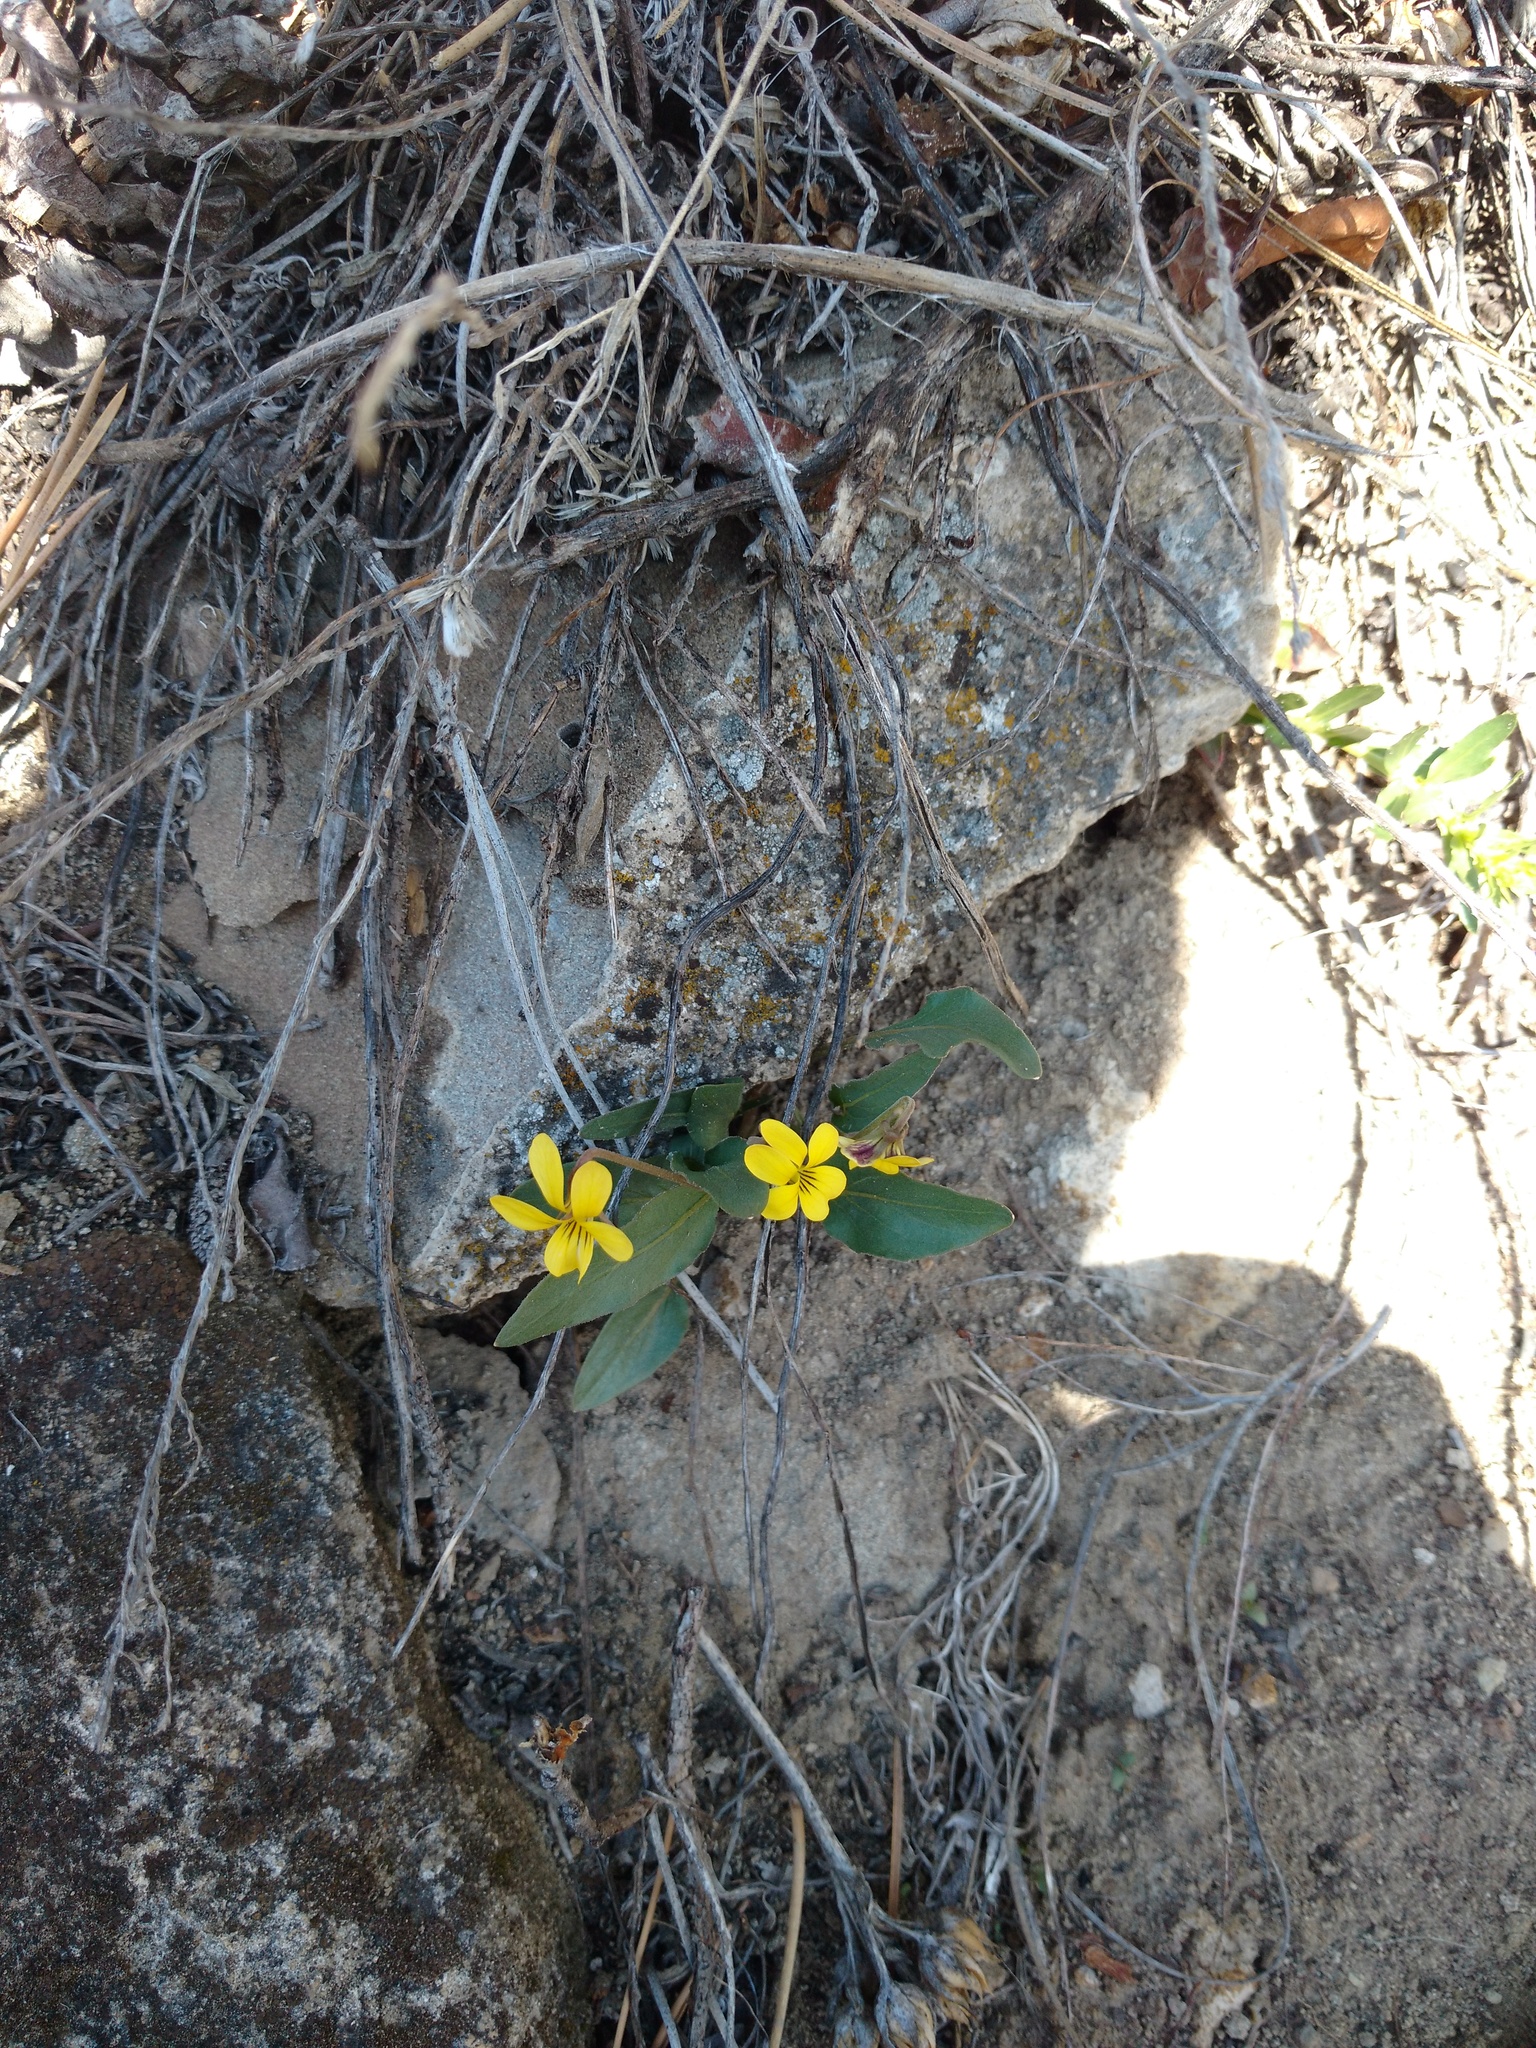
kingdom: Plantae
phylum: Tracheophyta
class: Magnoliopsida
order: Malpighiales
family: Violaceae
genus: Viola
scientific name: Viola nuttallii
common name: Yellow prairie violet
